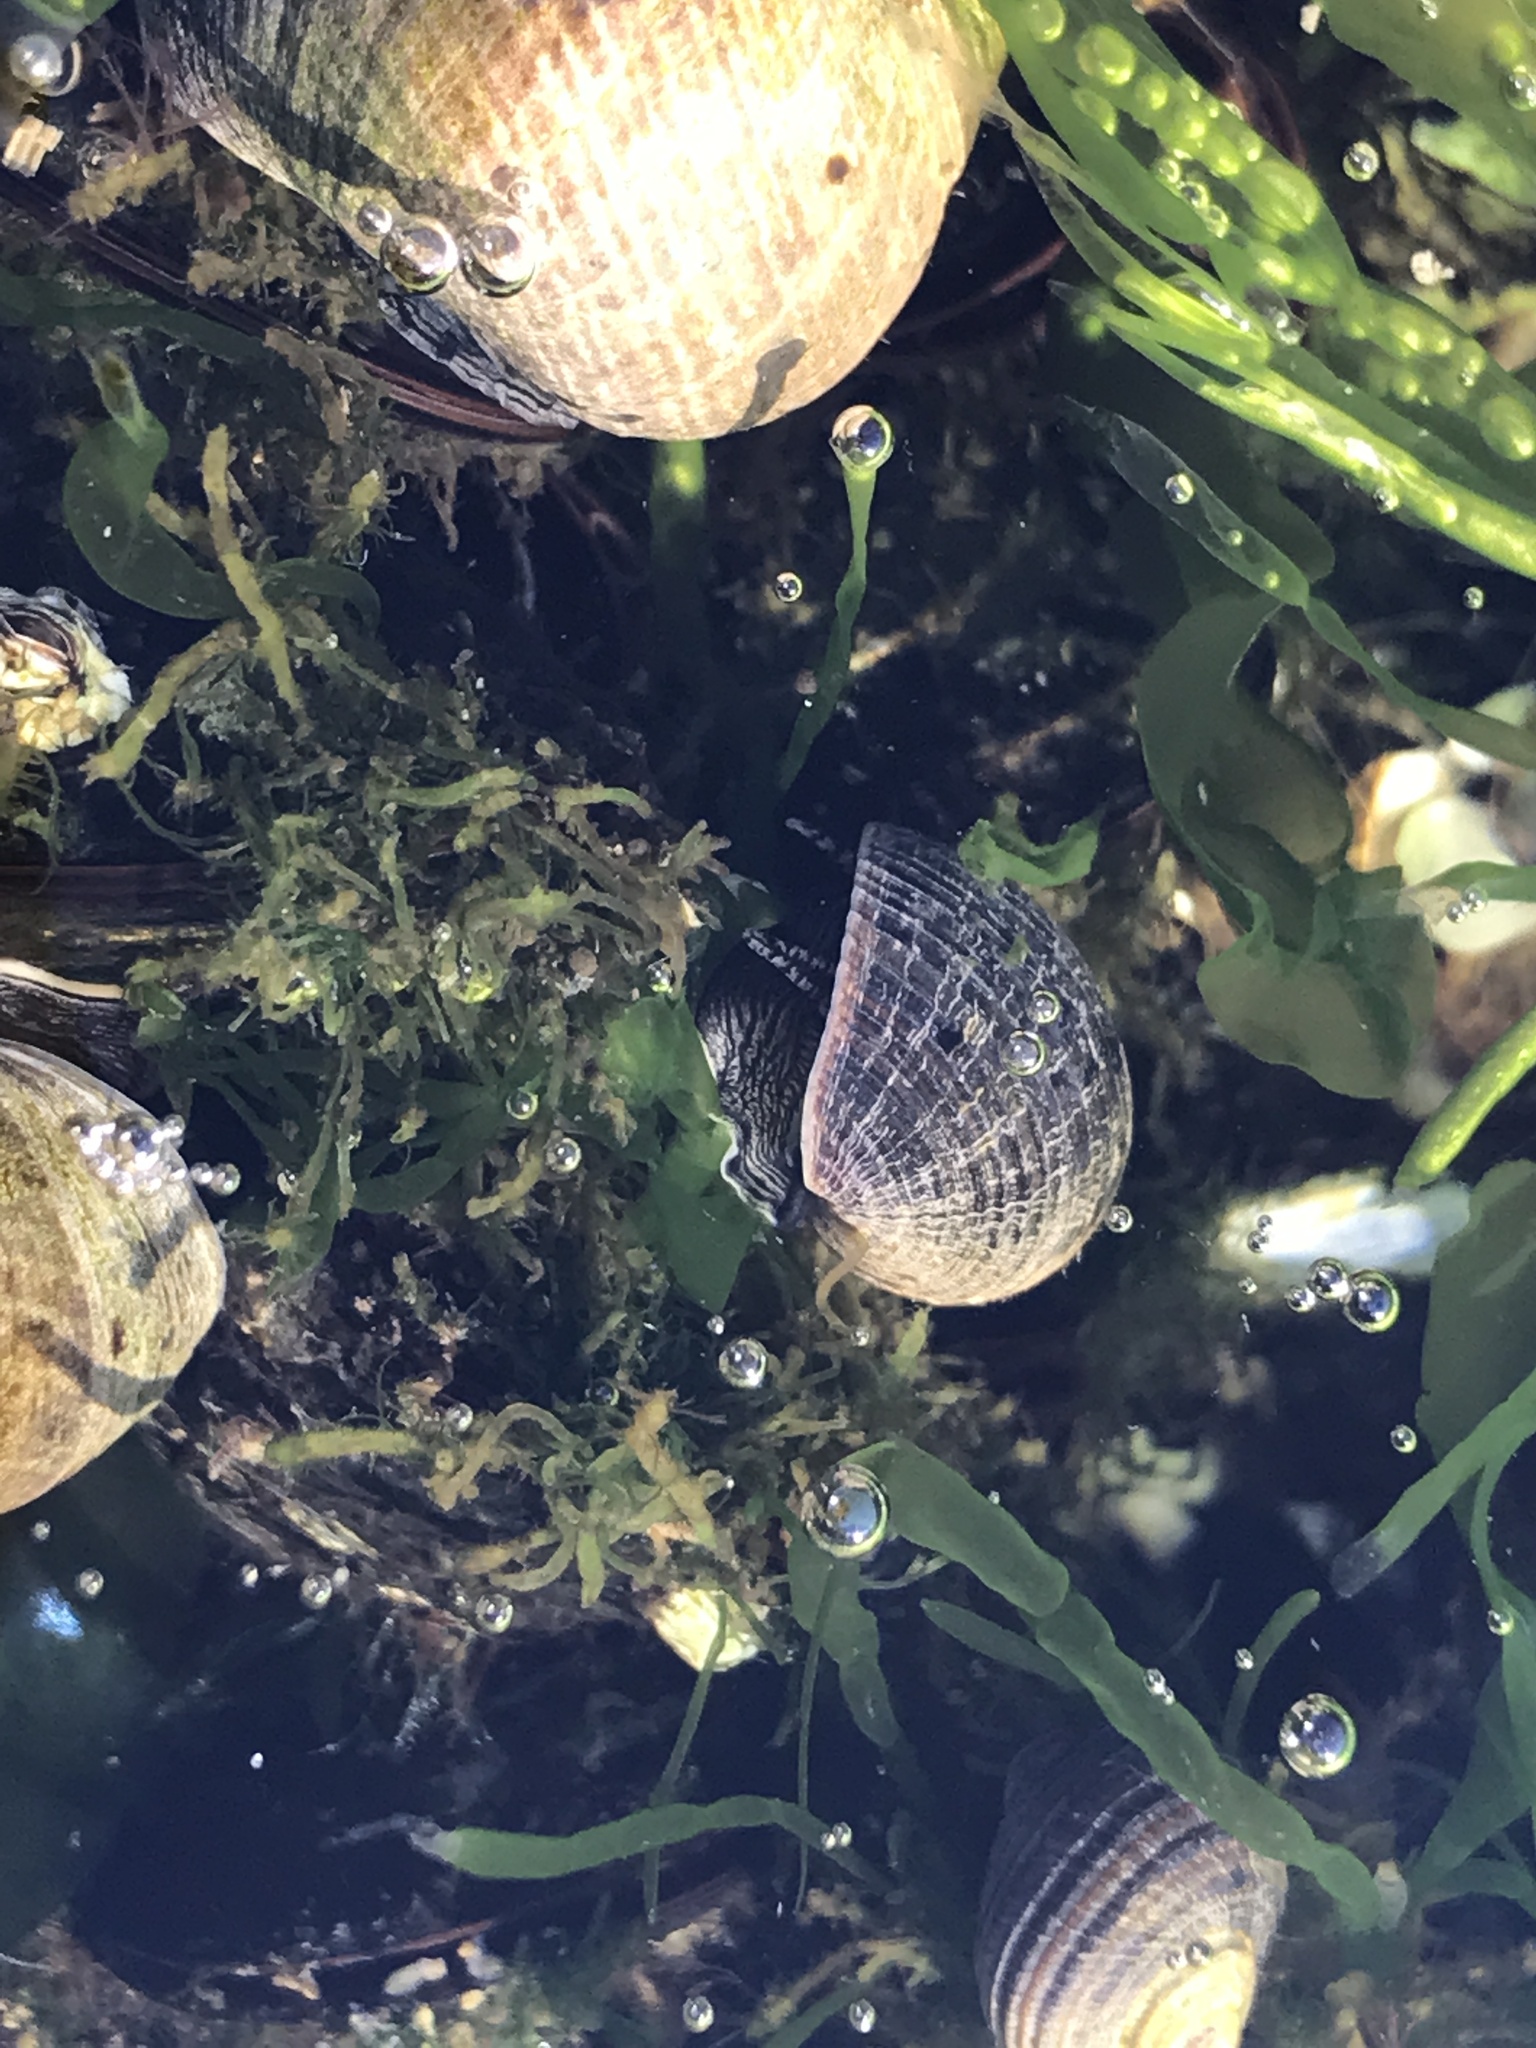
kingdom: Animalia
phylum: Mollusca
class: Gastropoda
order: Littorinimorpha
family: Littorinidae
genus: Littorina
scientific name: Littorina littorea
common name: Common periwinkle
